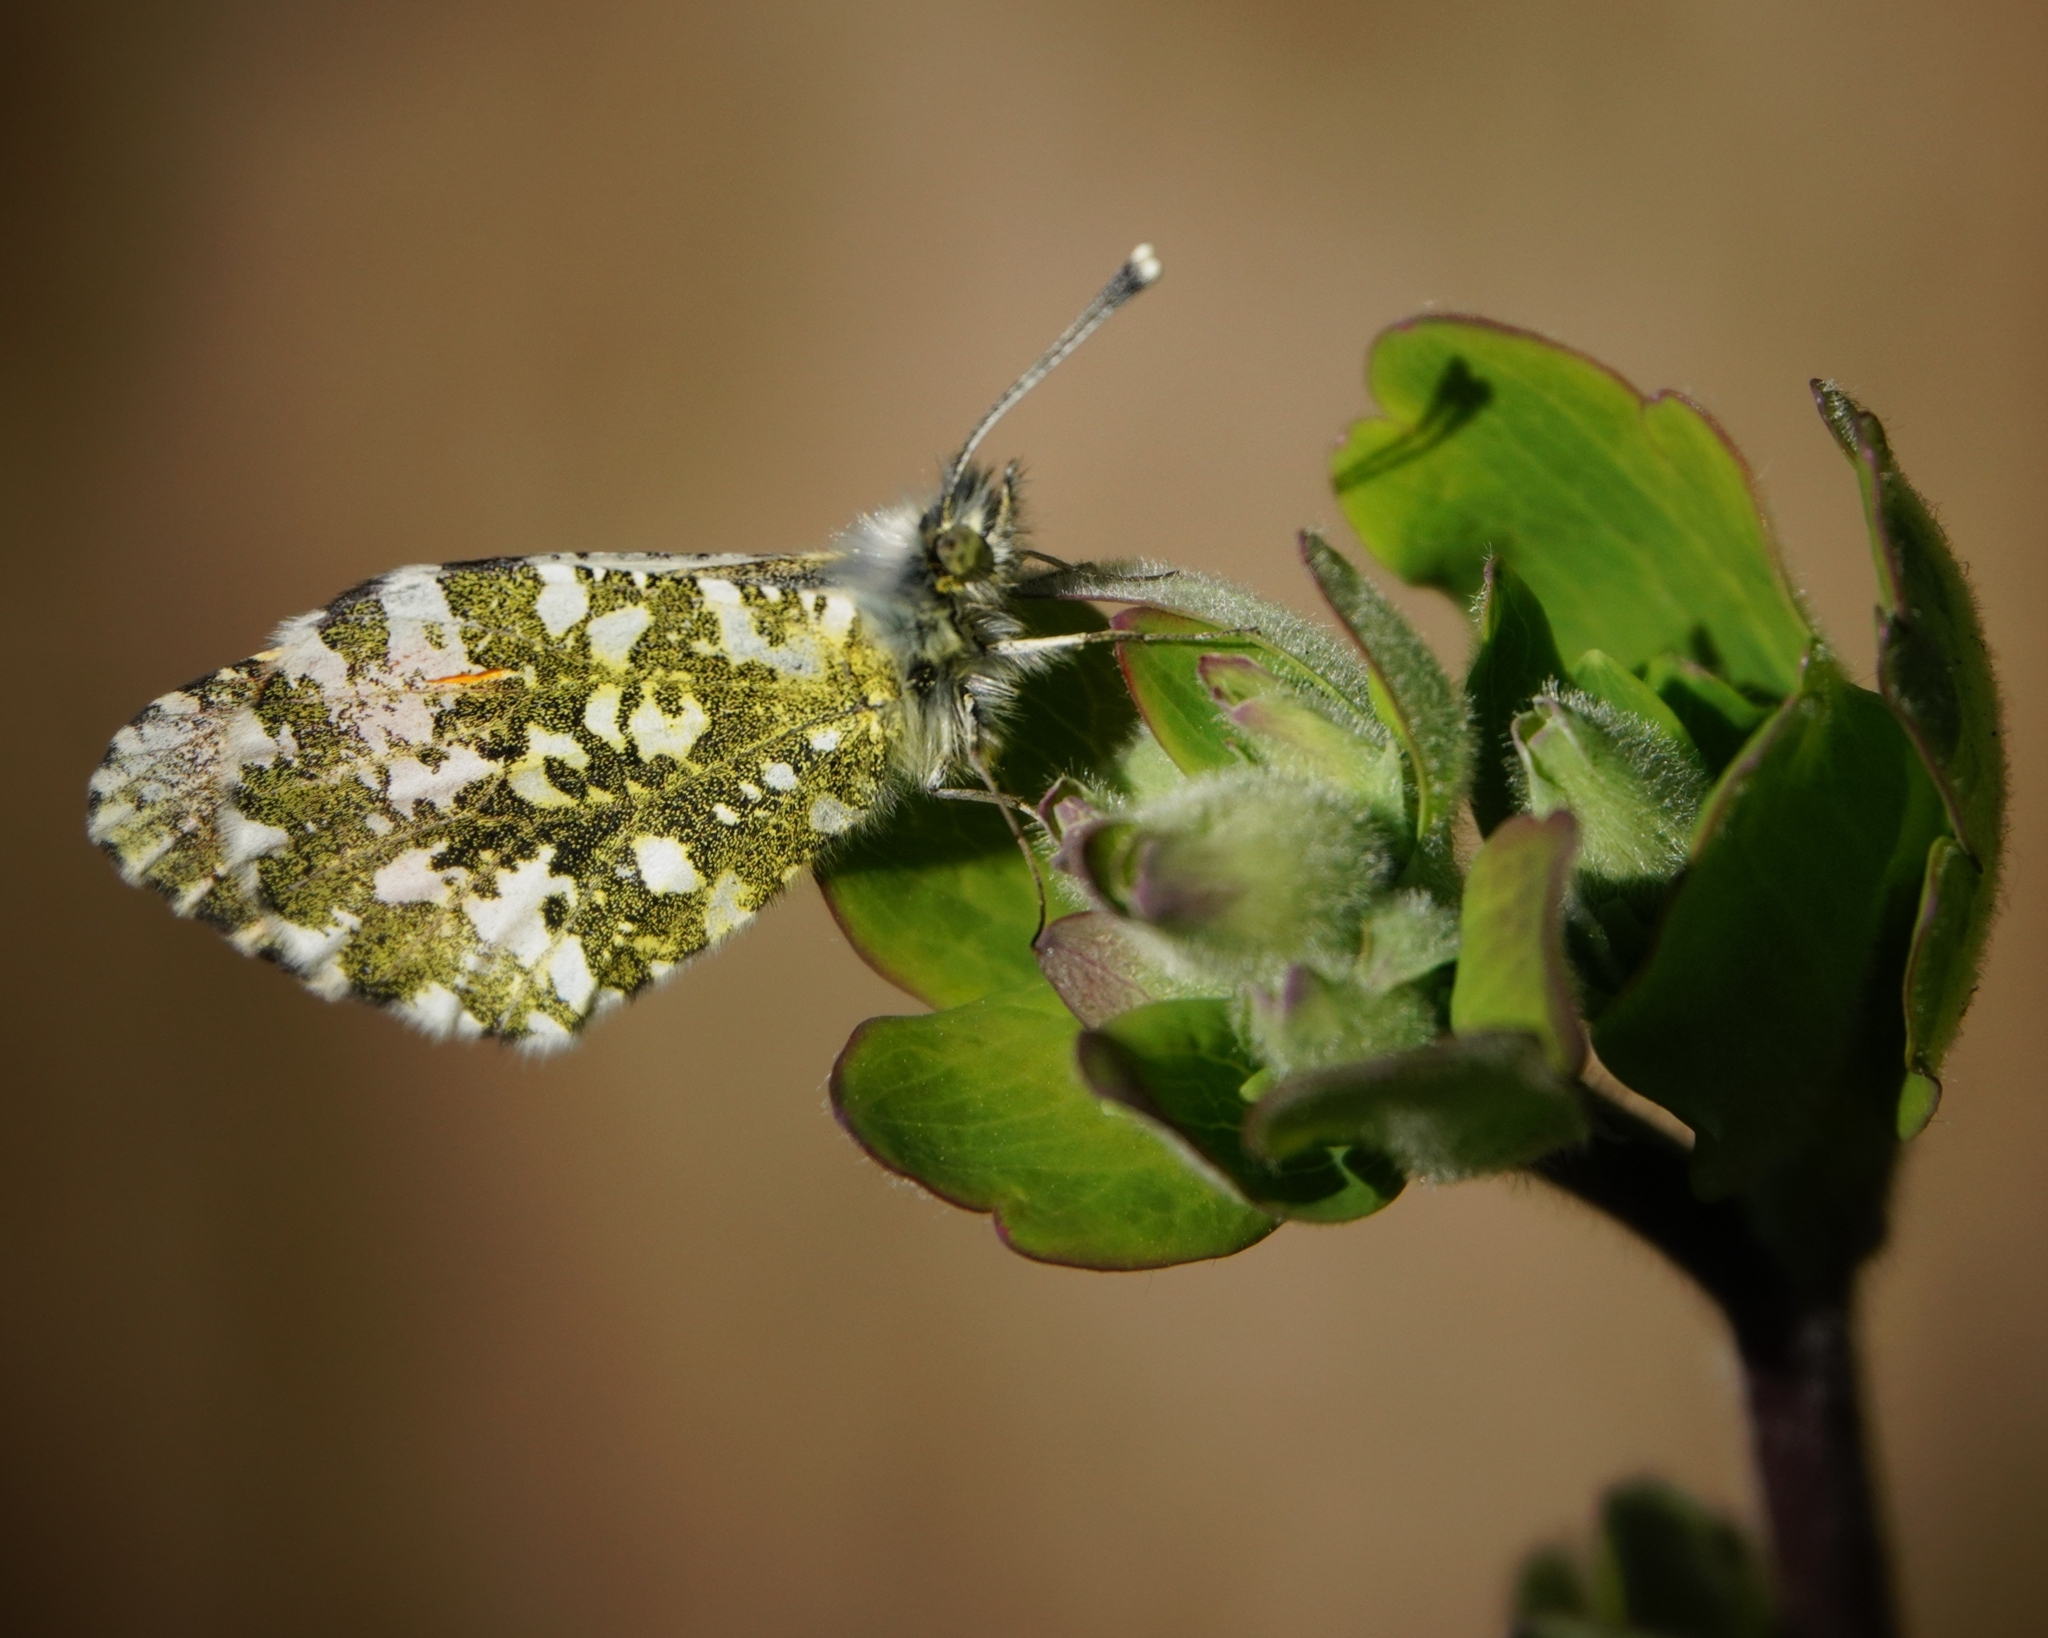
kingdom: Animalia
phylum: Arthropoda
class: Insecta
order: Lepidoptera
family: Pieridae
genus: Anthocharis
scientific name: Anthocharis cardamines
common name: Orange-tip
